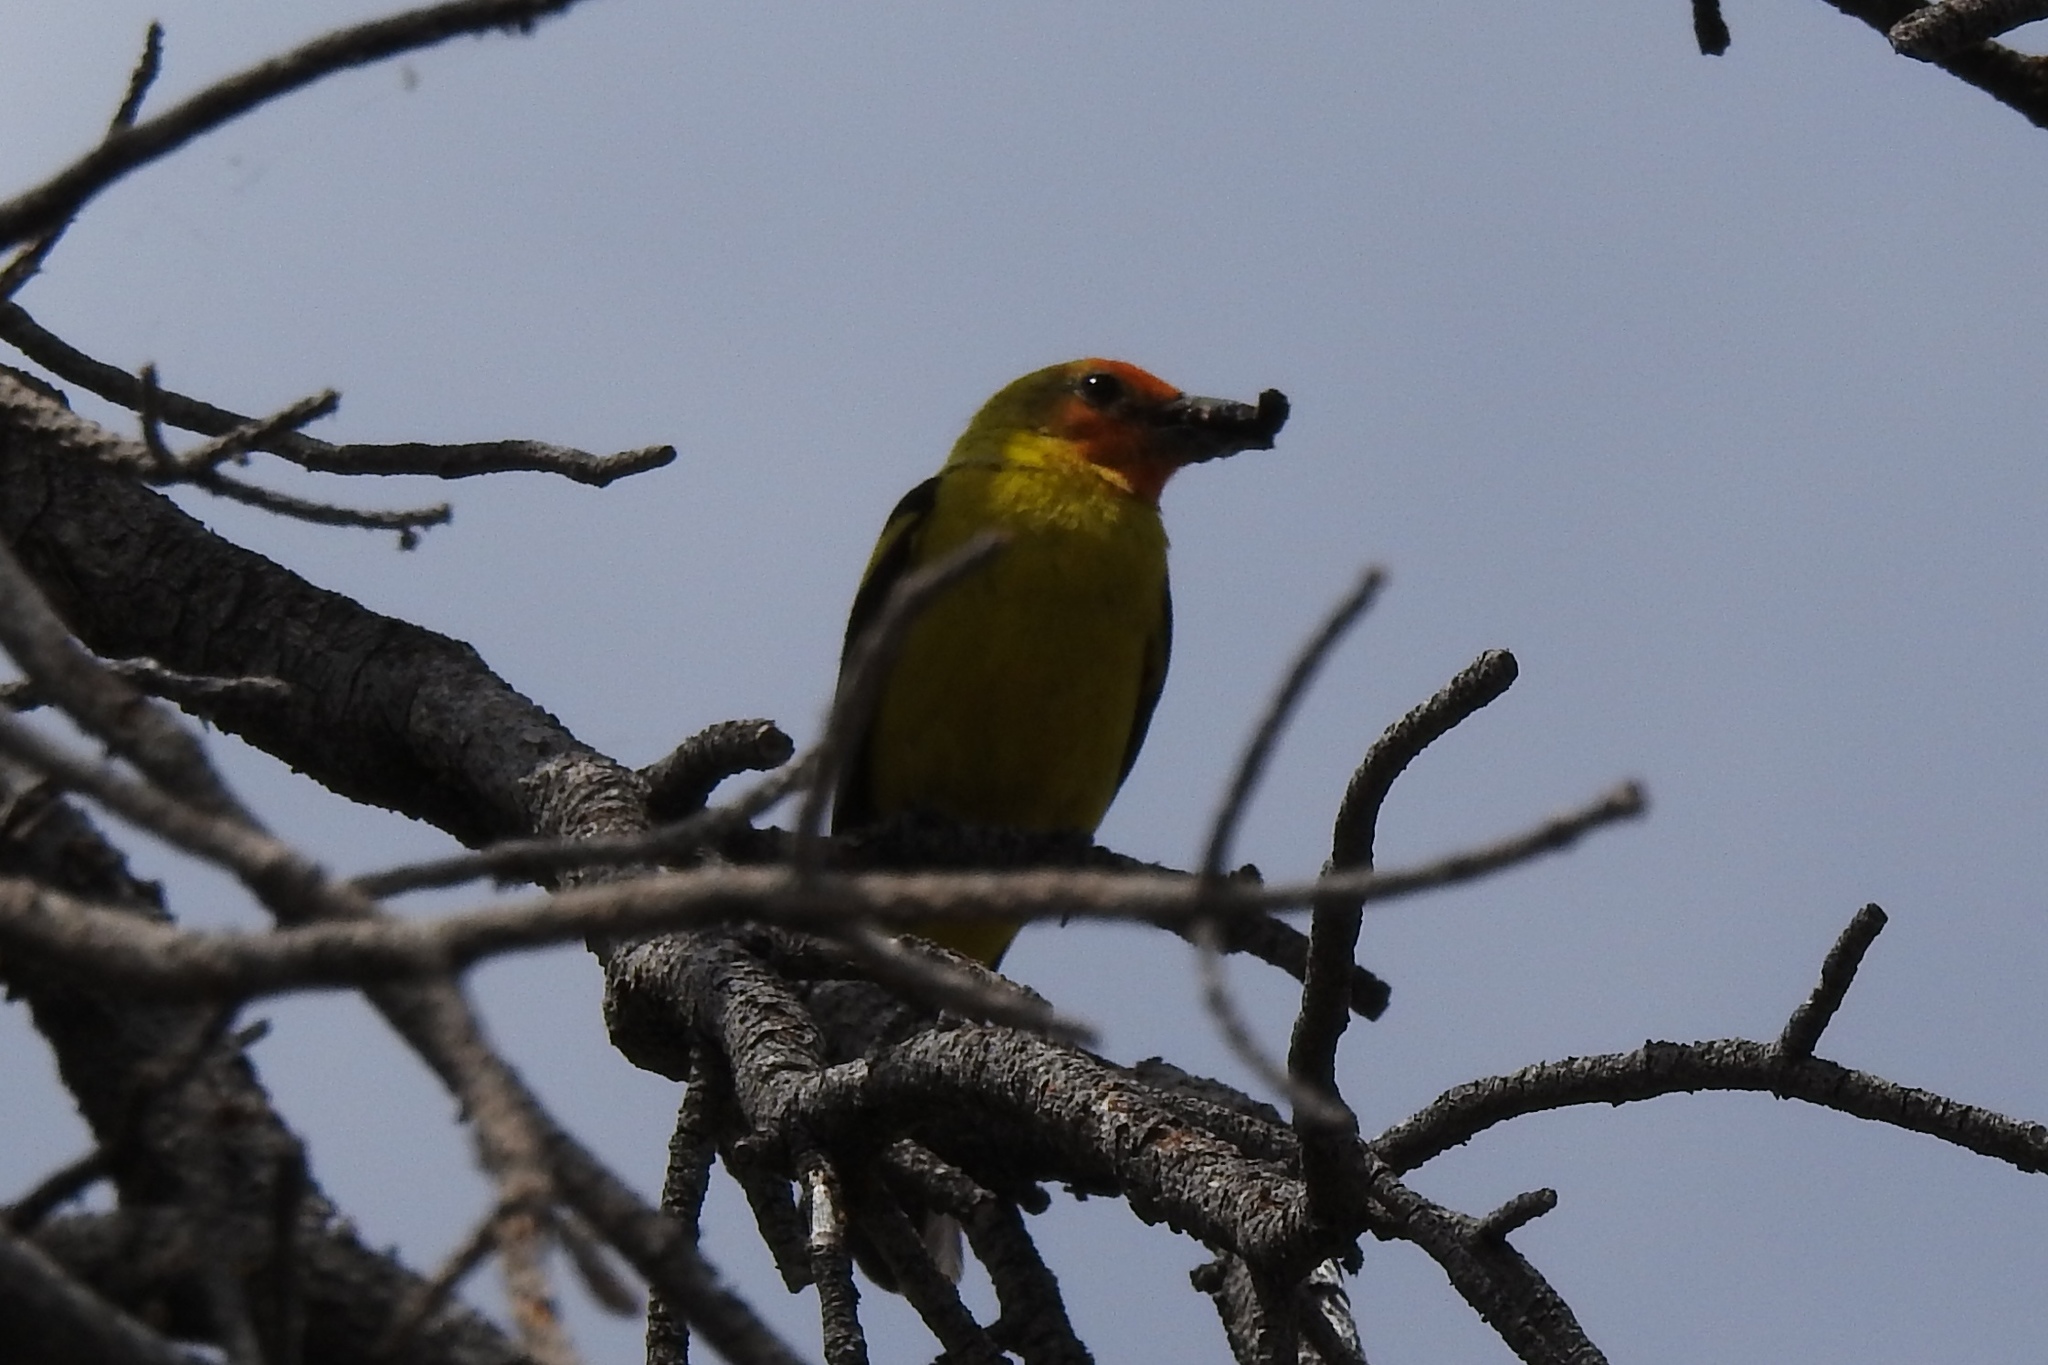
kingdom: Animalia
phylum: Chordata
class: Aves
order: Passeriformes
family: Cardinalidae
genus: Piranga
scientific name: Piranga ludoviciana
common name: Western tanager
